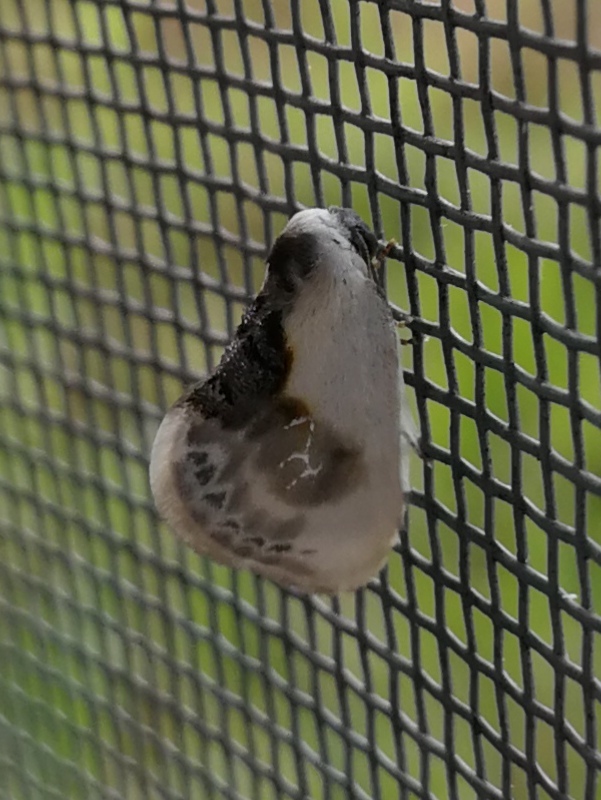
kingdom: Animalia
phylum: Arthropoda
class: Insecta
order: Lepidoptera
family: Drepanidae
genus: Cilix
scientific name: Cilix glaucata
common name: Chinese character
